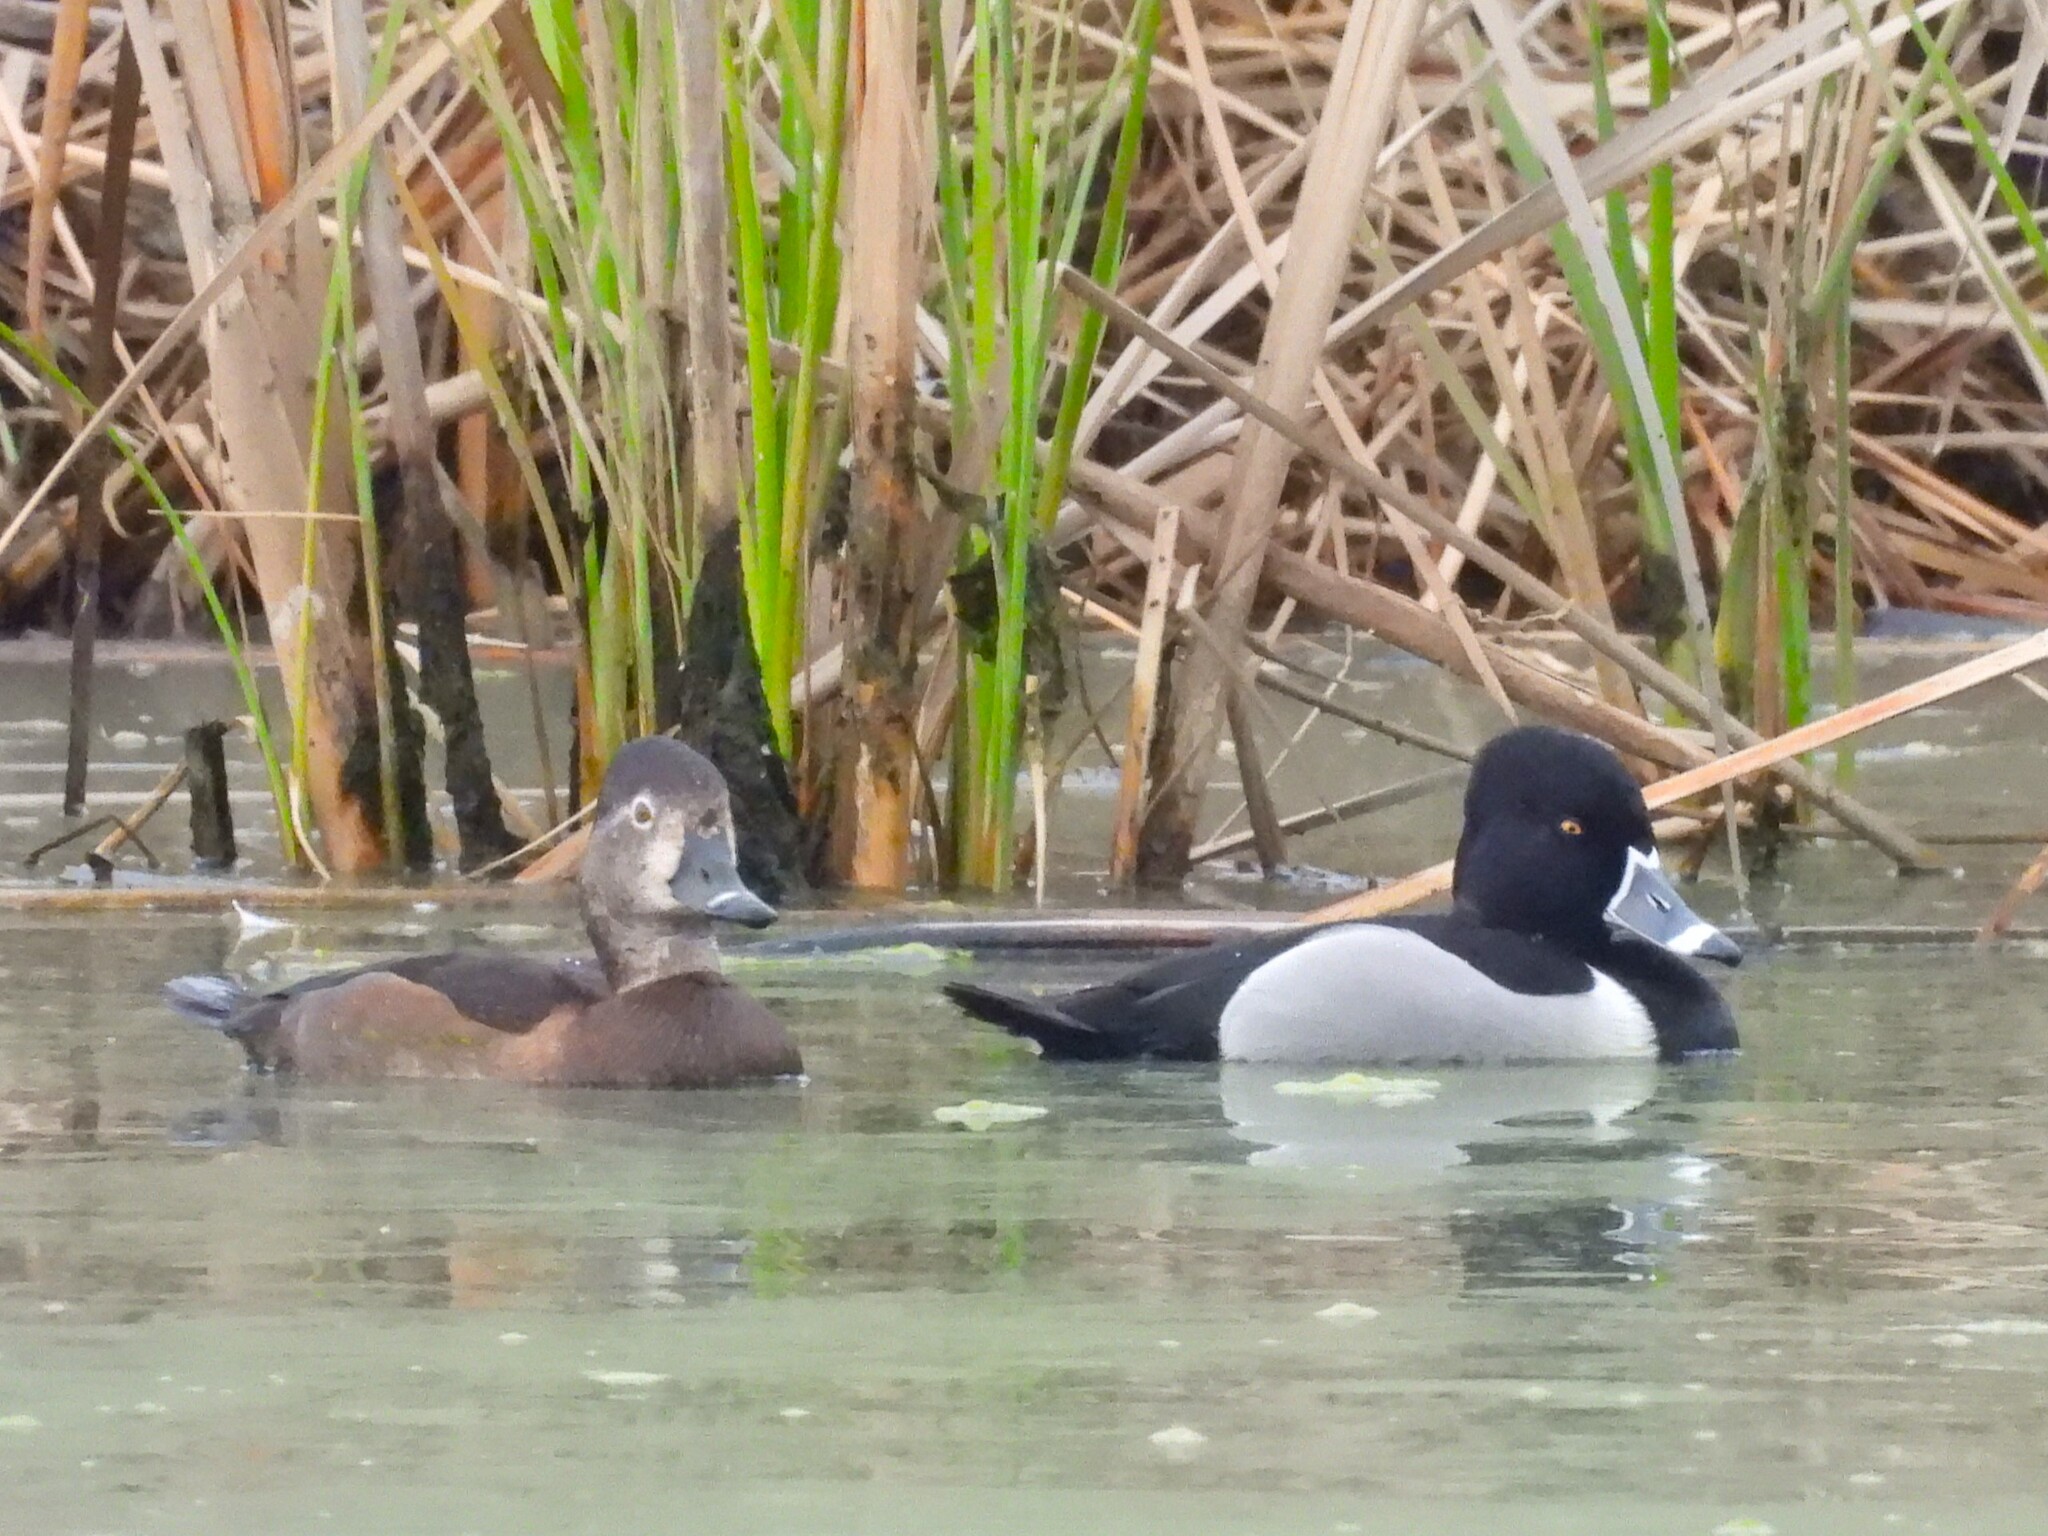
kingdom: Animalia
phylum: Chordata
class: Aves
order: Anseriformes
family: Anatidae
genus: Aythya
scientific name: Aythya collaris
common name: Ring-necked duck
